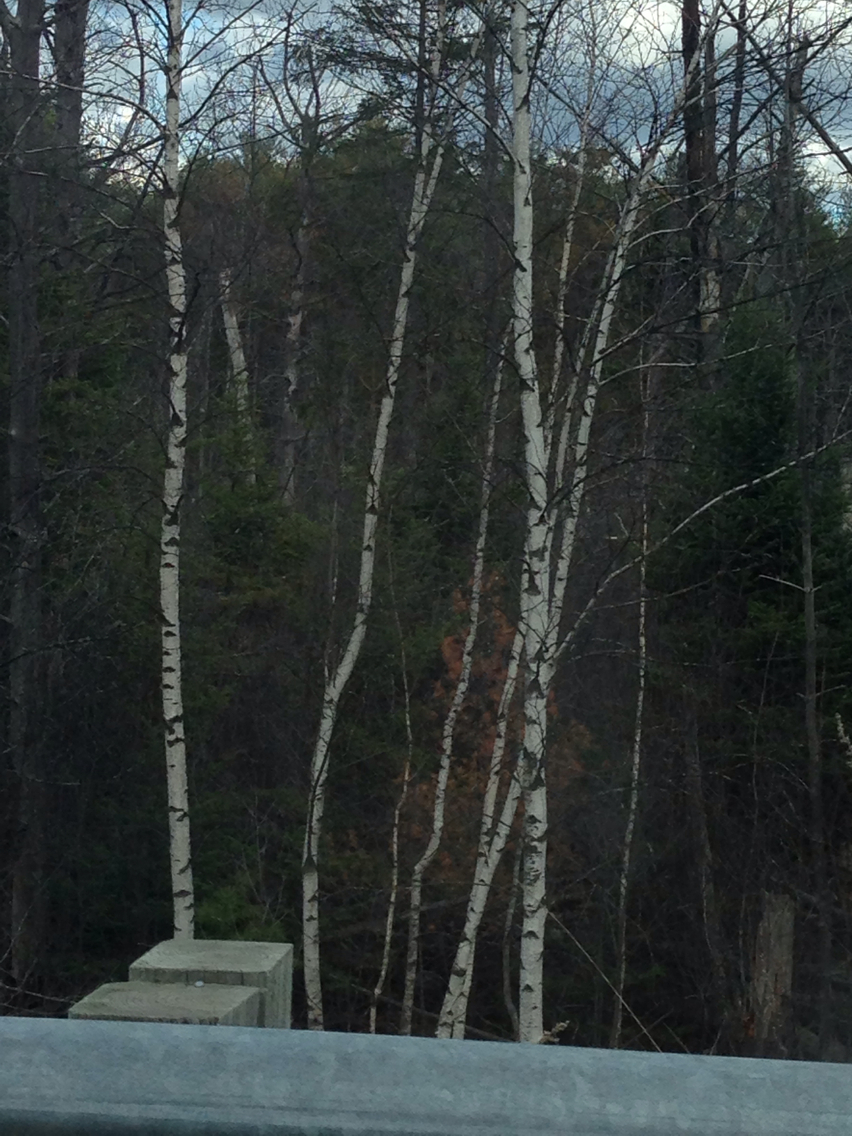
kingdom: Plantae
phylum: Tracheophyta
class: Magnoliopsida
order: Fagales
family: Betulaceae
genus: Betula
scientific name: Betula populifolia
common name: Fire birch
